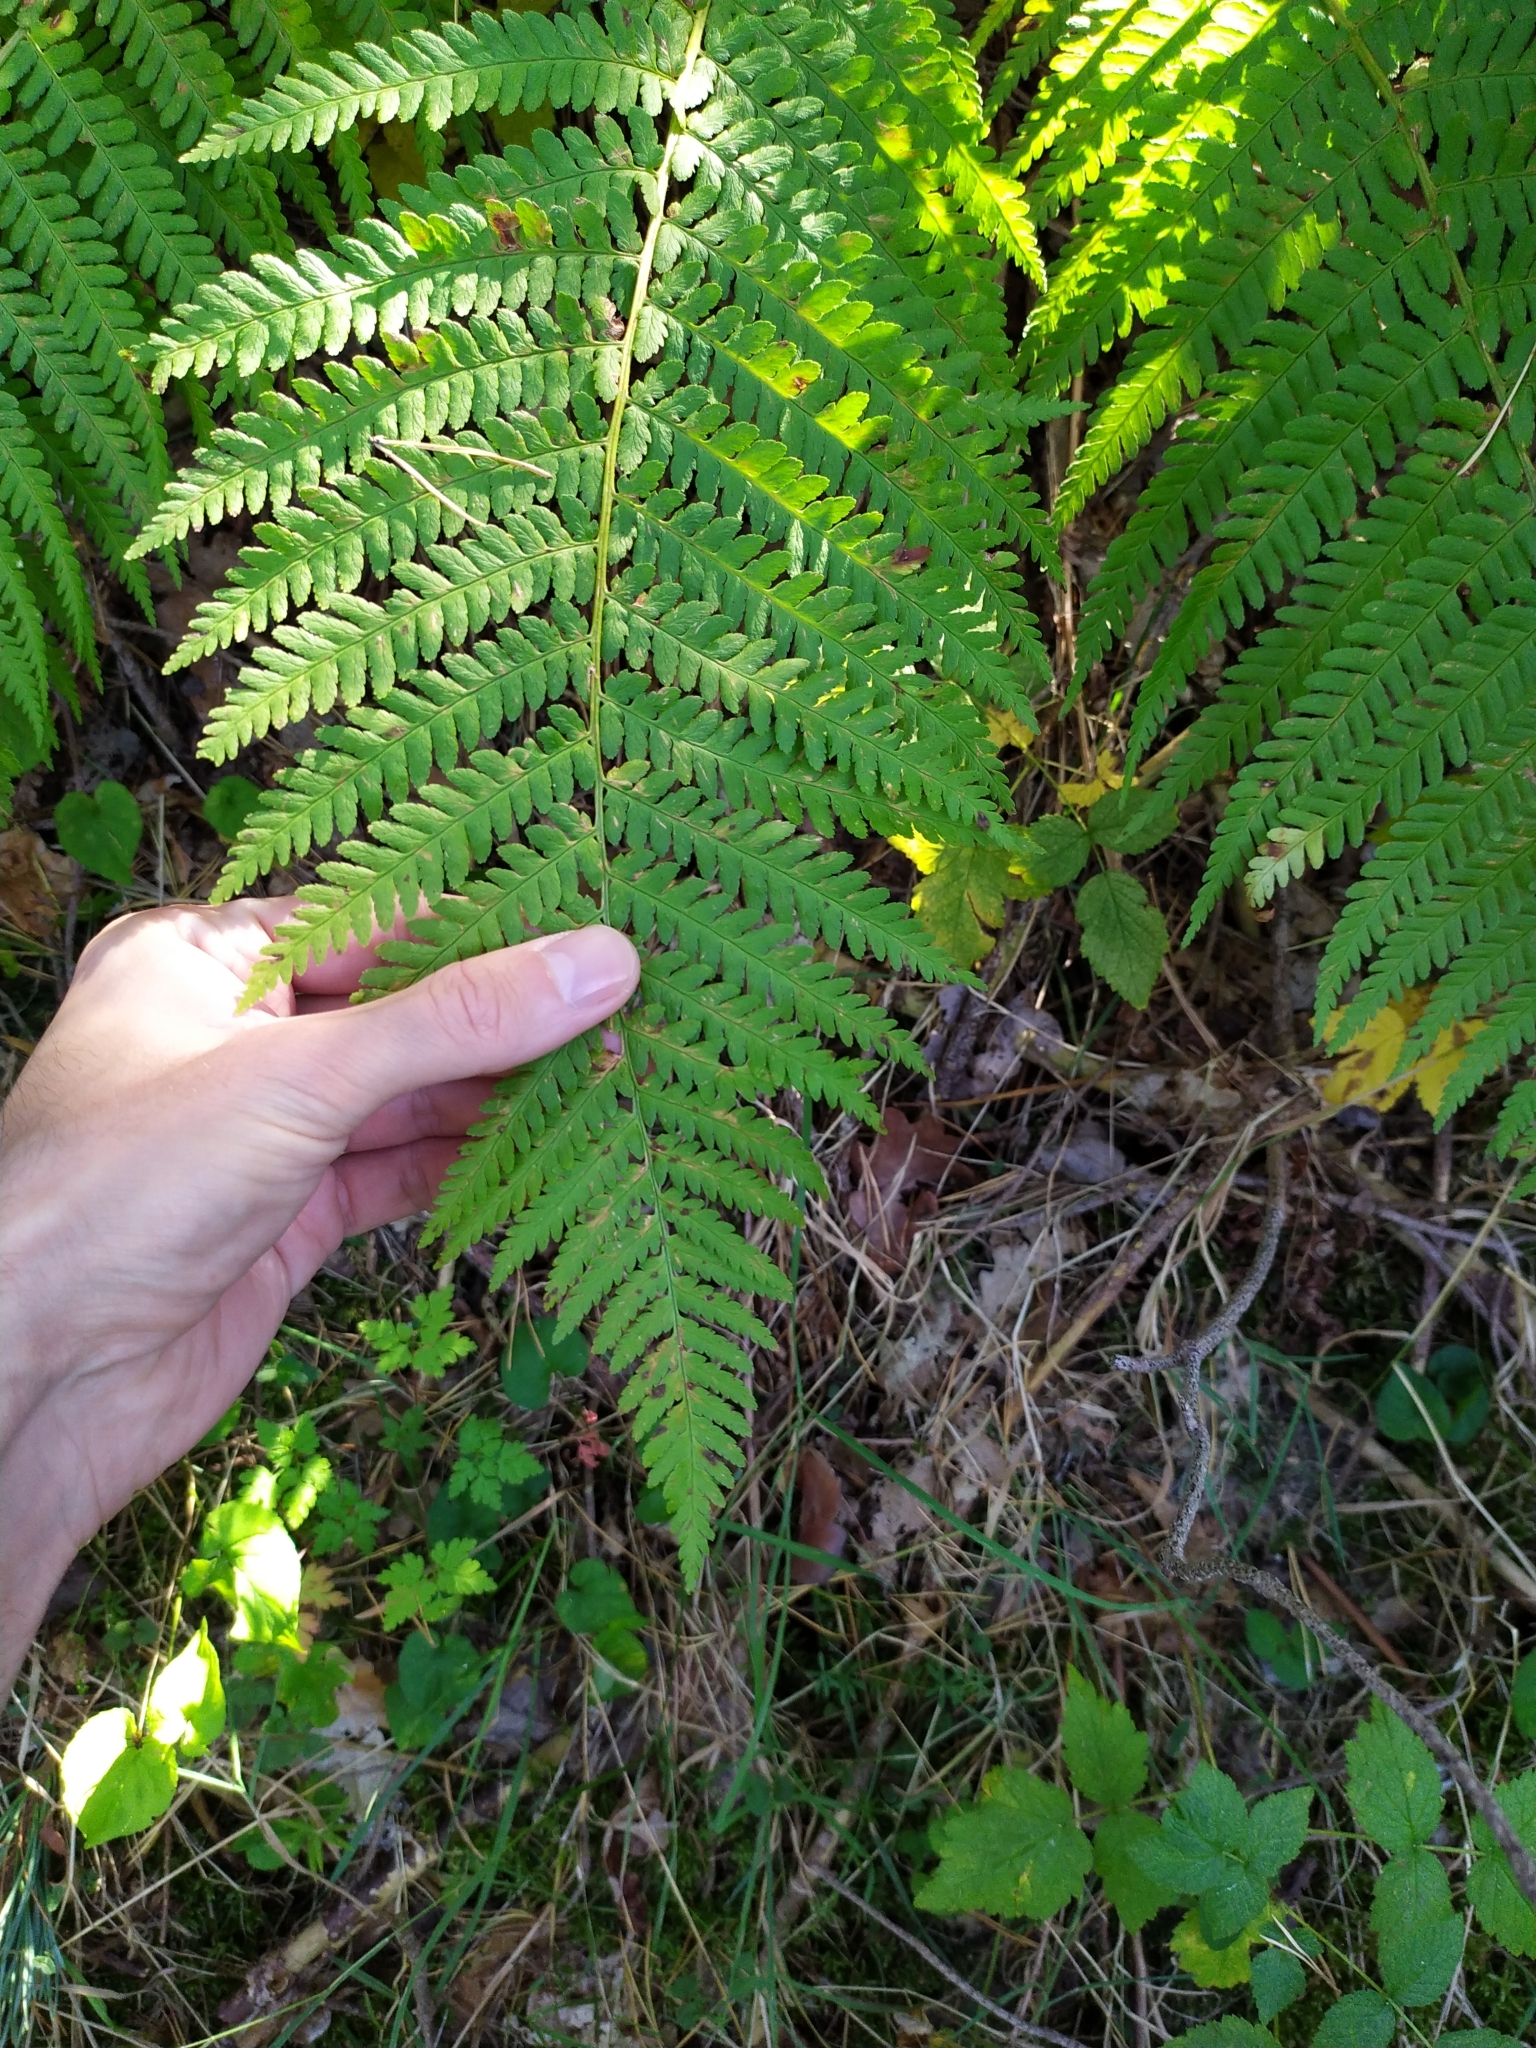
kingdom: Plantae
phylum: Tracheophyta
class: Polypodiopsida
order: Polypodiales
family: Dryopteridaceae
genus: Dryopteris
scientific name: Dryopteris filix-mas
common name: Male fern
